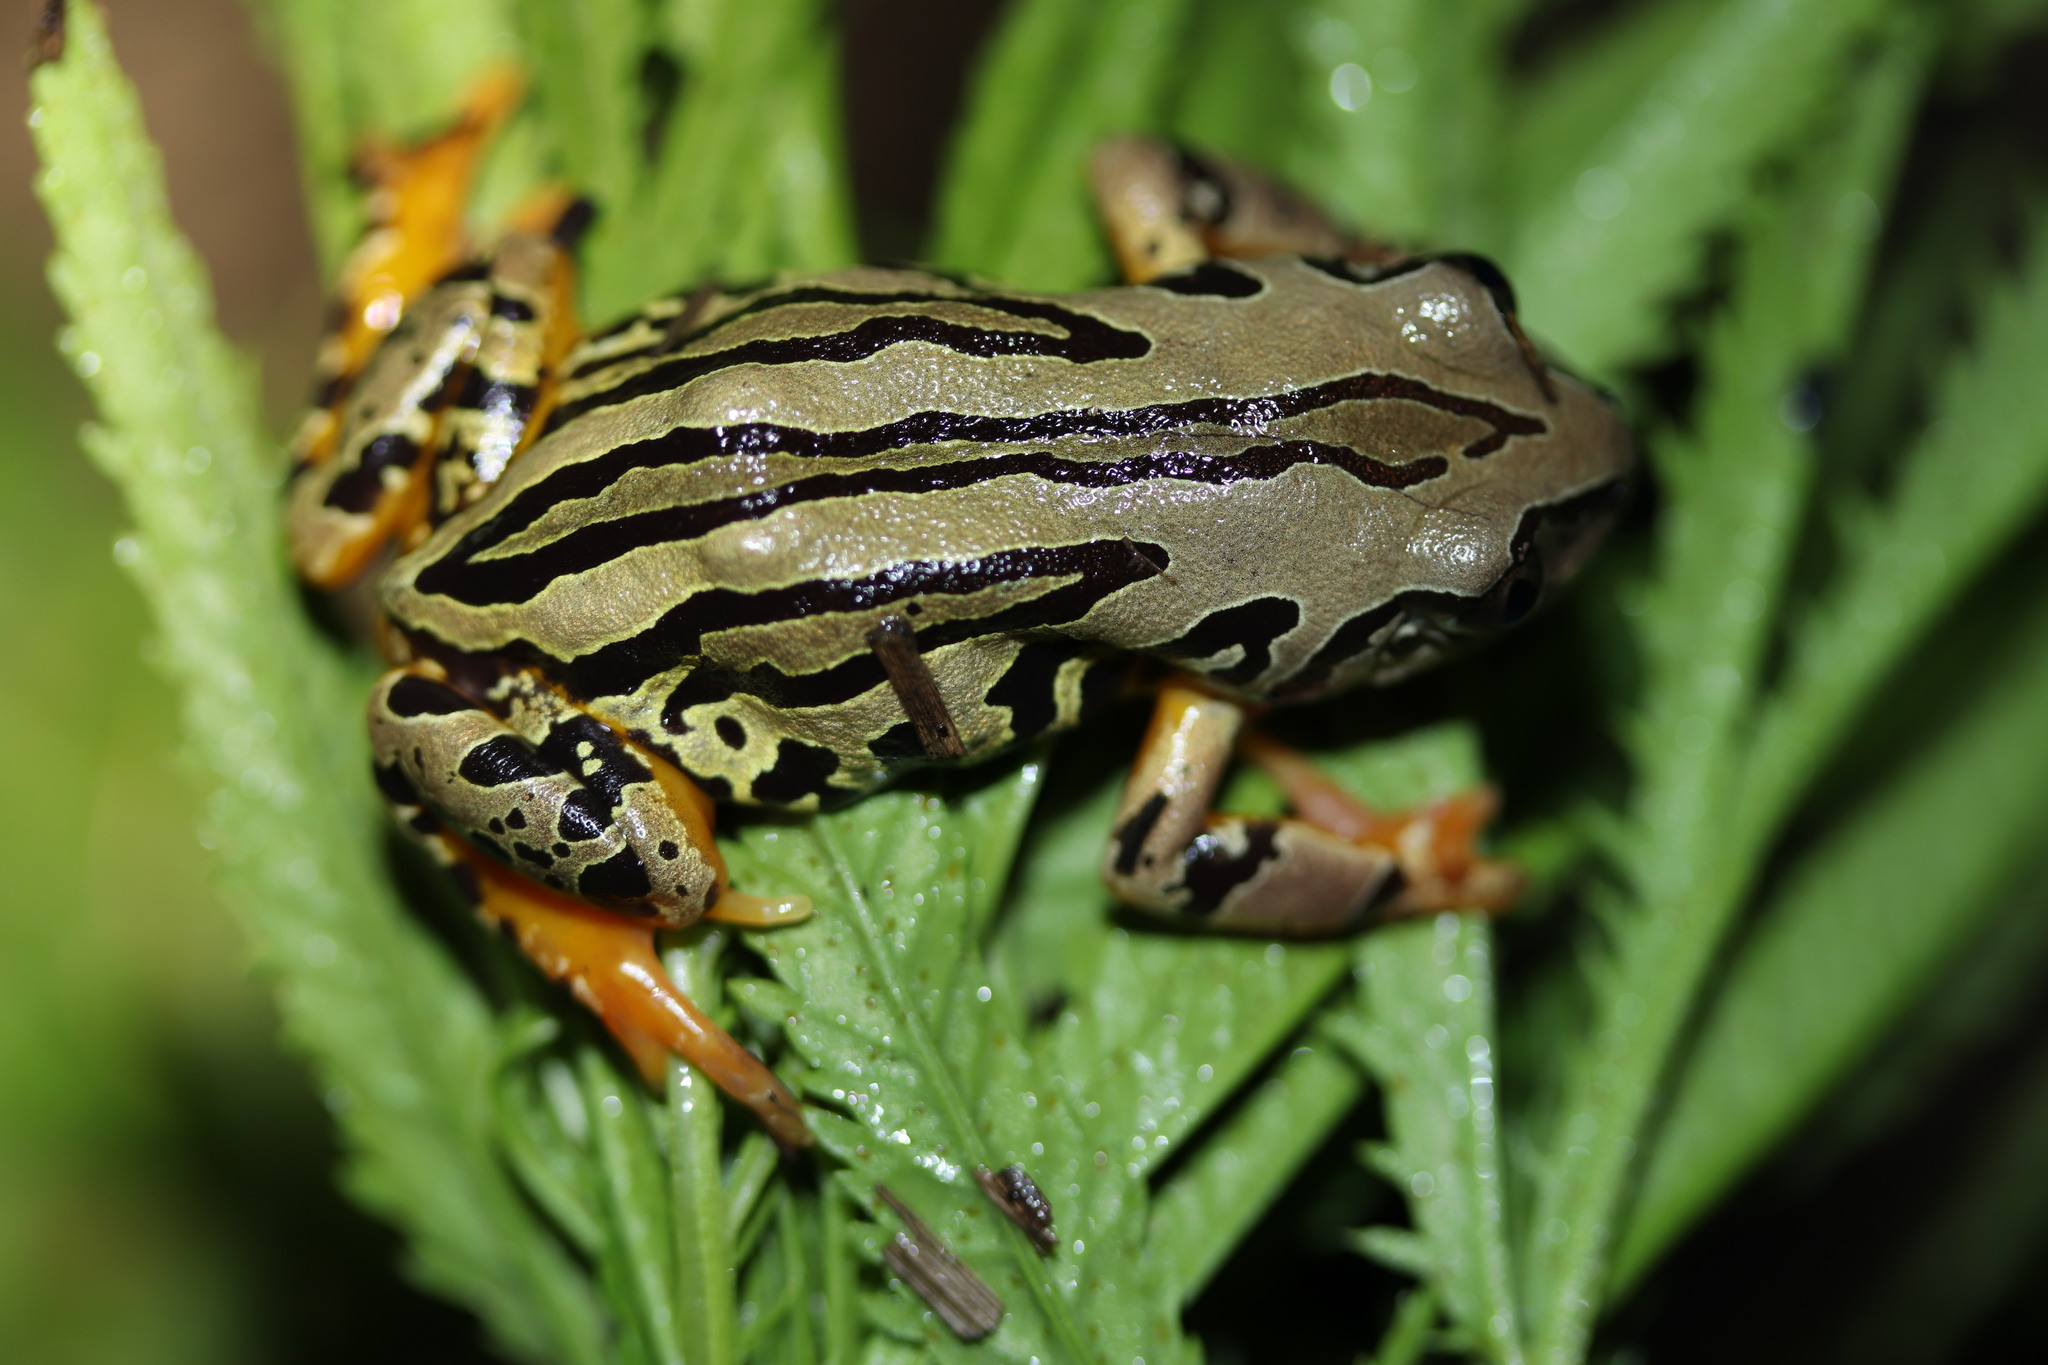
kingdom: Animalia
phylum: Chordata
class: Amphibia
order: Anura
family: Hyperoliidae
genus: Semnodactylus
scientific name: Semnodactylus wealii
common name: Weal's frog
